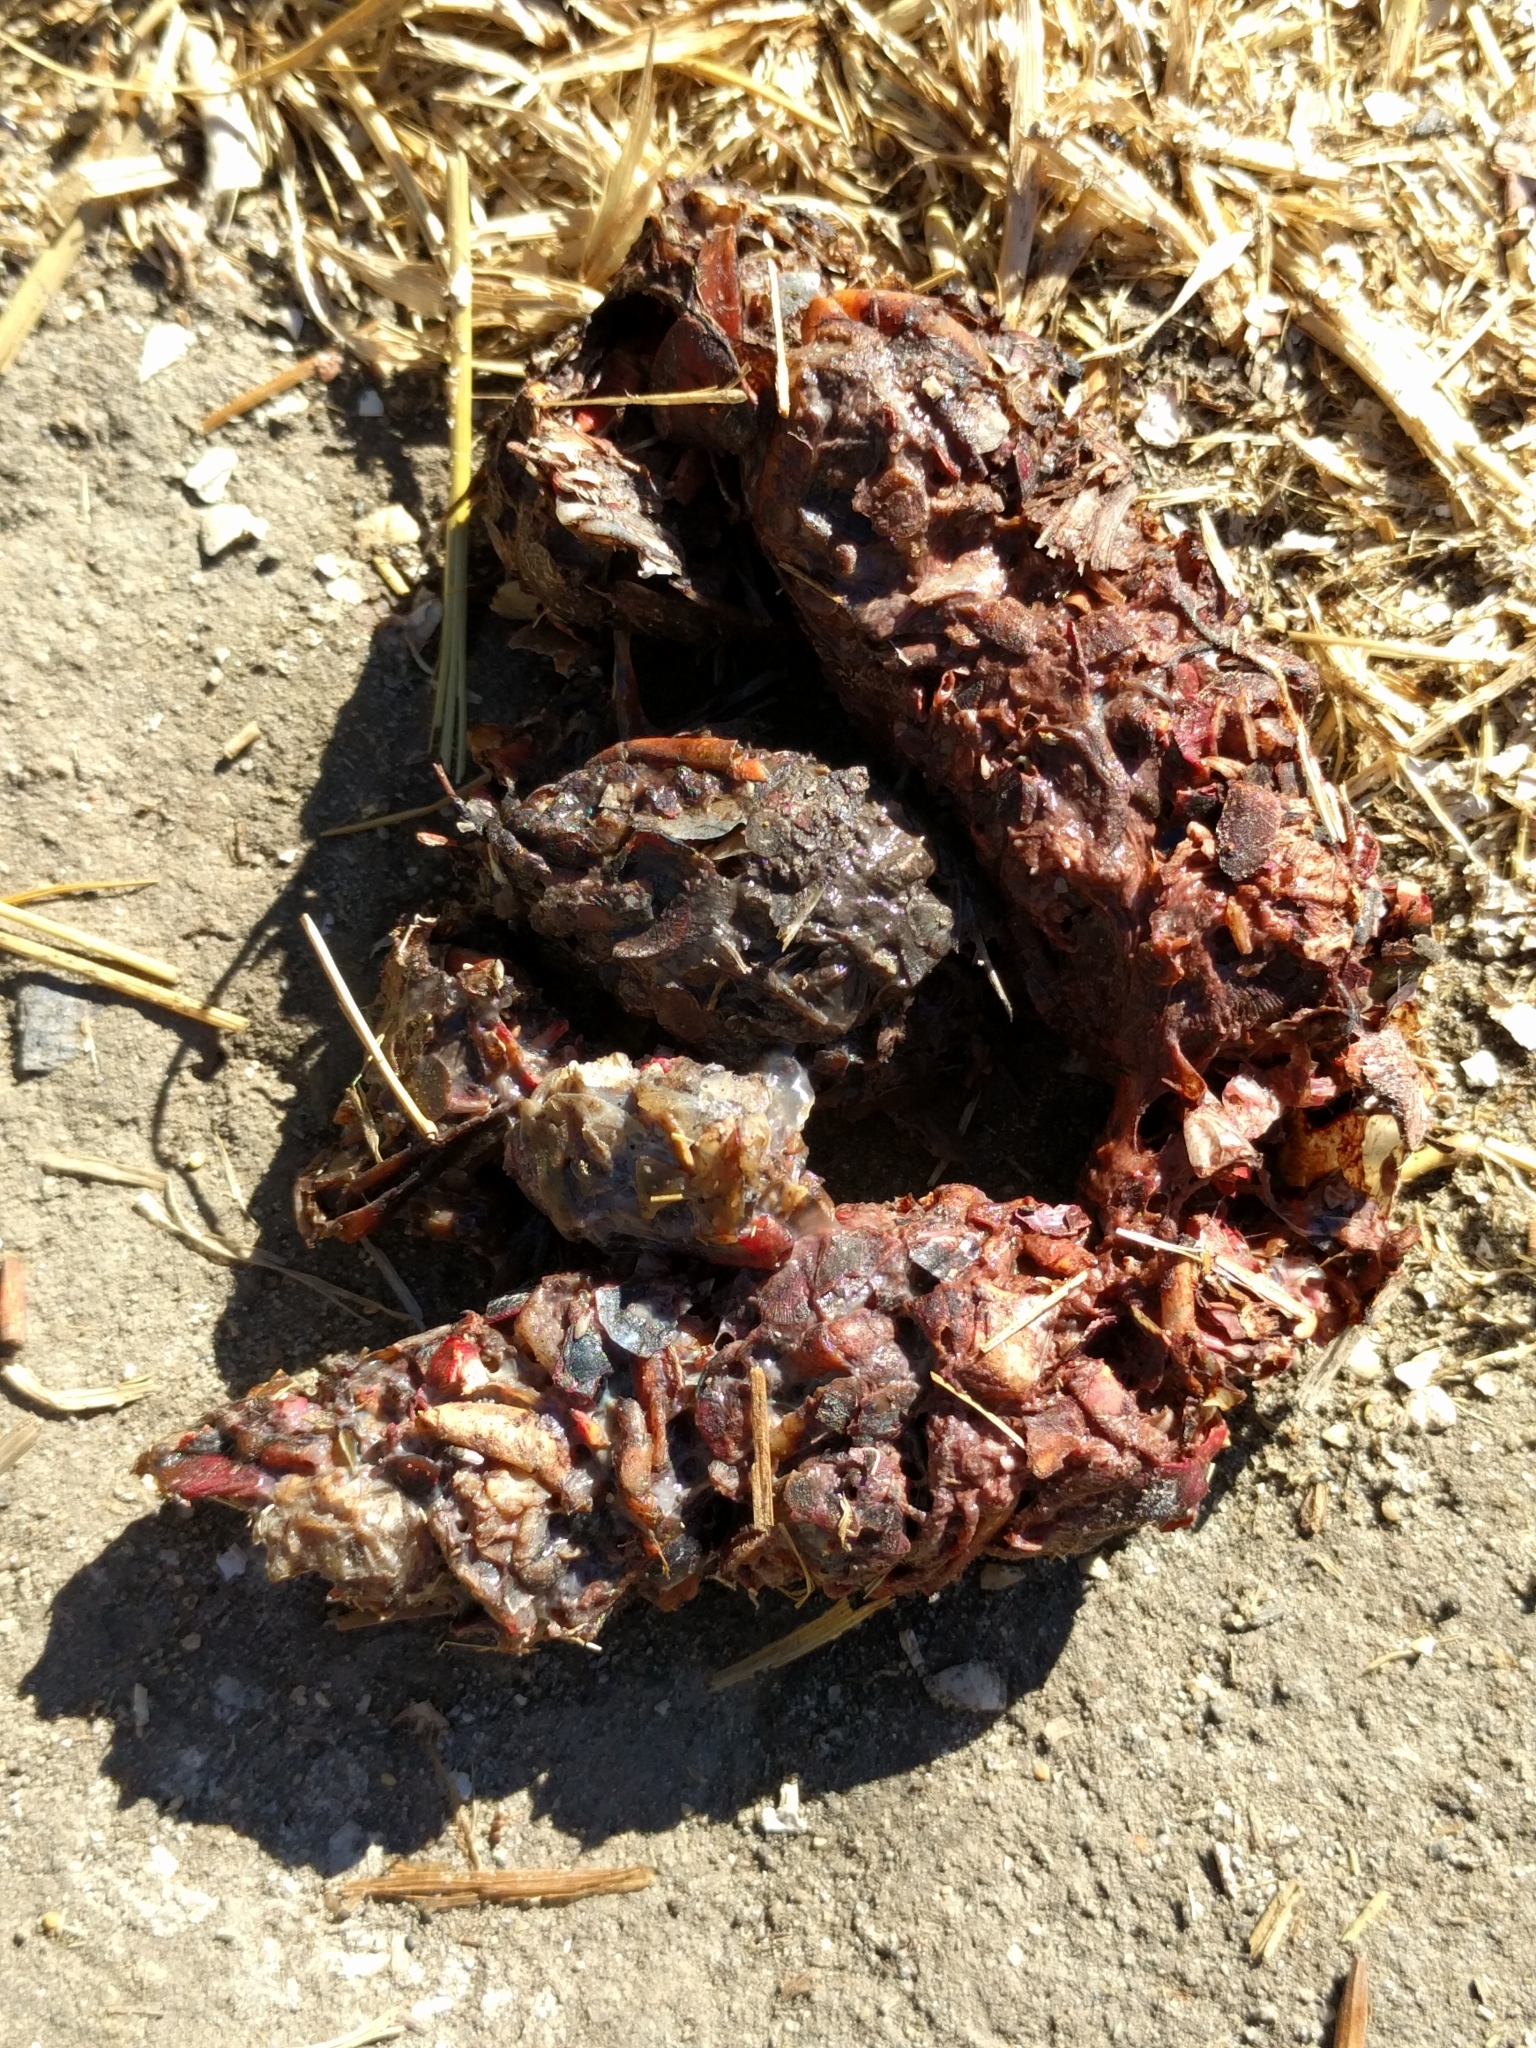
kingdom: Animalia
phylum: Chordata
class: Mammalia
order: Carnivora
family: Mustelidae
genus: Lontra
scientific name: Lontra canadensis
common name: North american river otter
